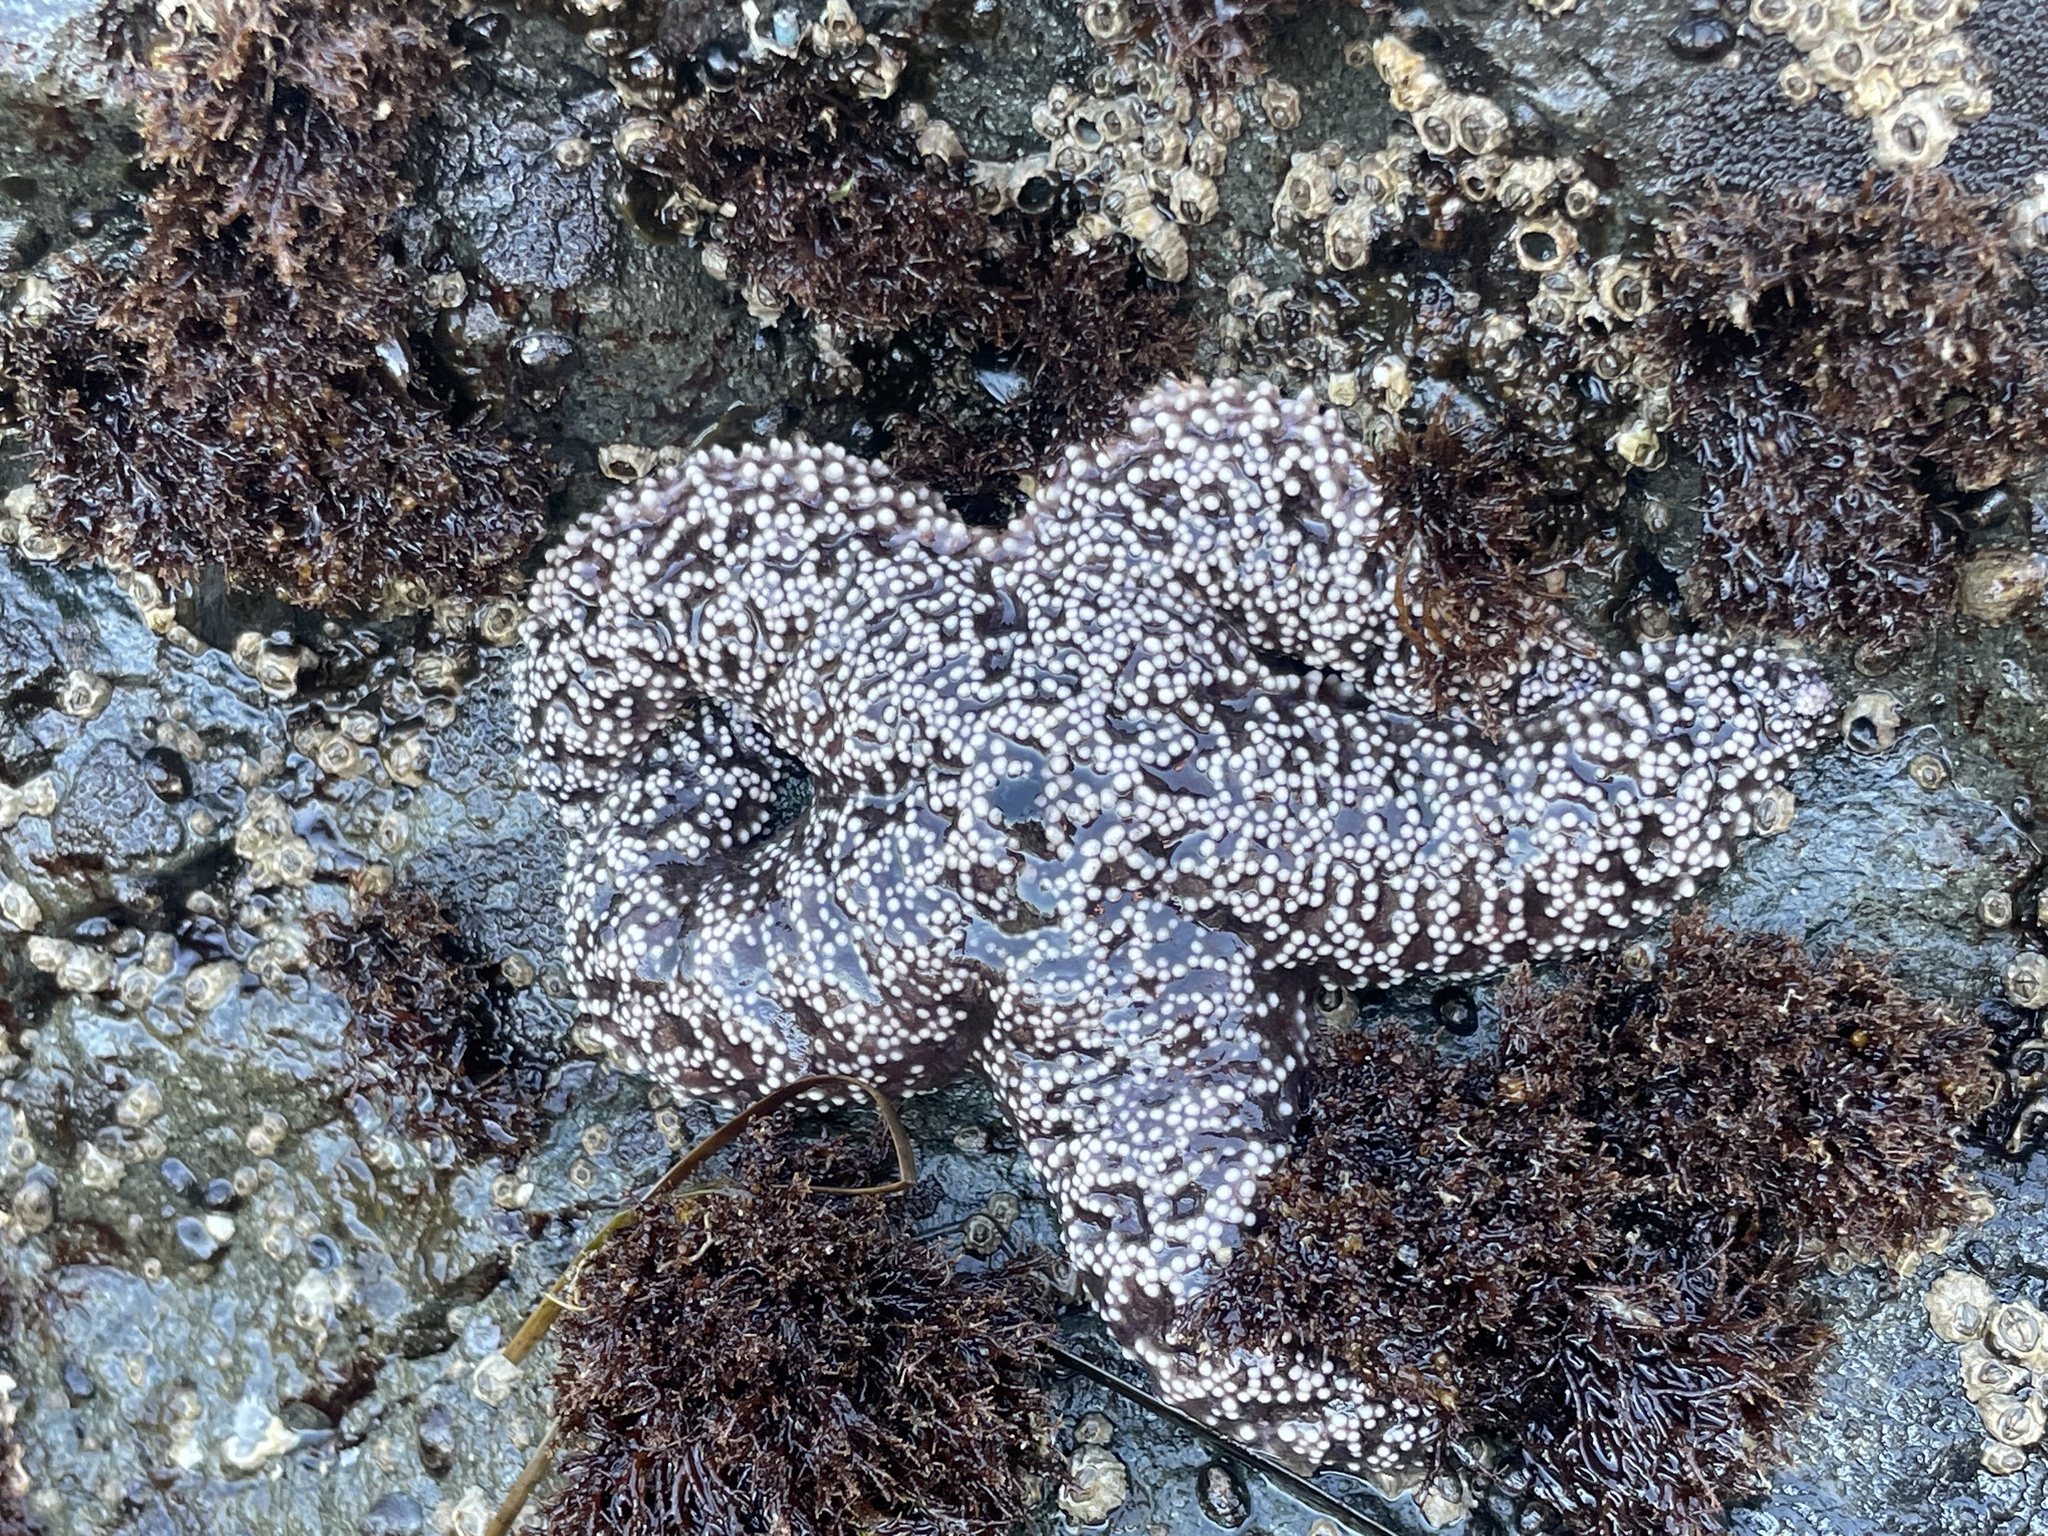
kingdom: Animalia
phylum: Echinodermata
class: Asteroidea
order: Forcipulatida
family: Asteriidae
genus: Pisaster
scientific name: Pisaster ochraceus
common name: Ochre stars
